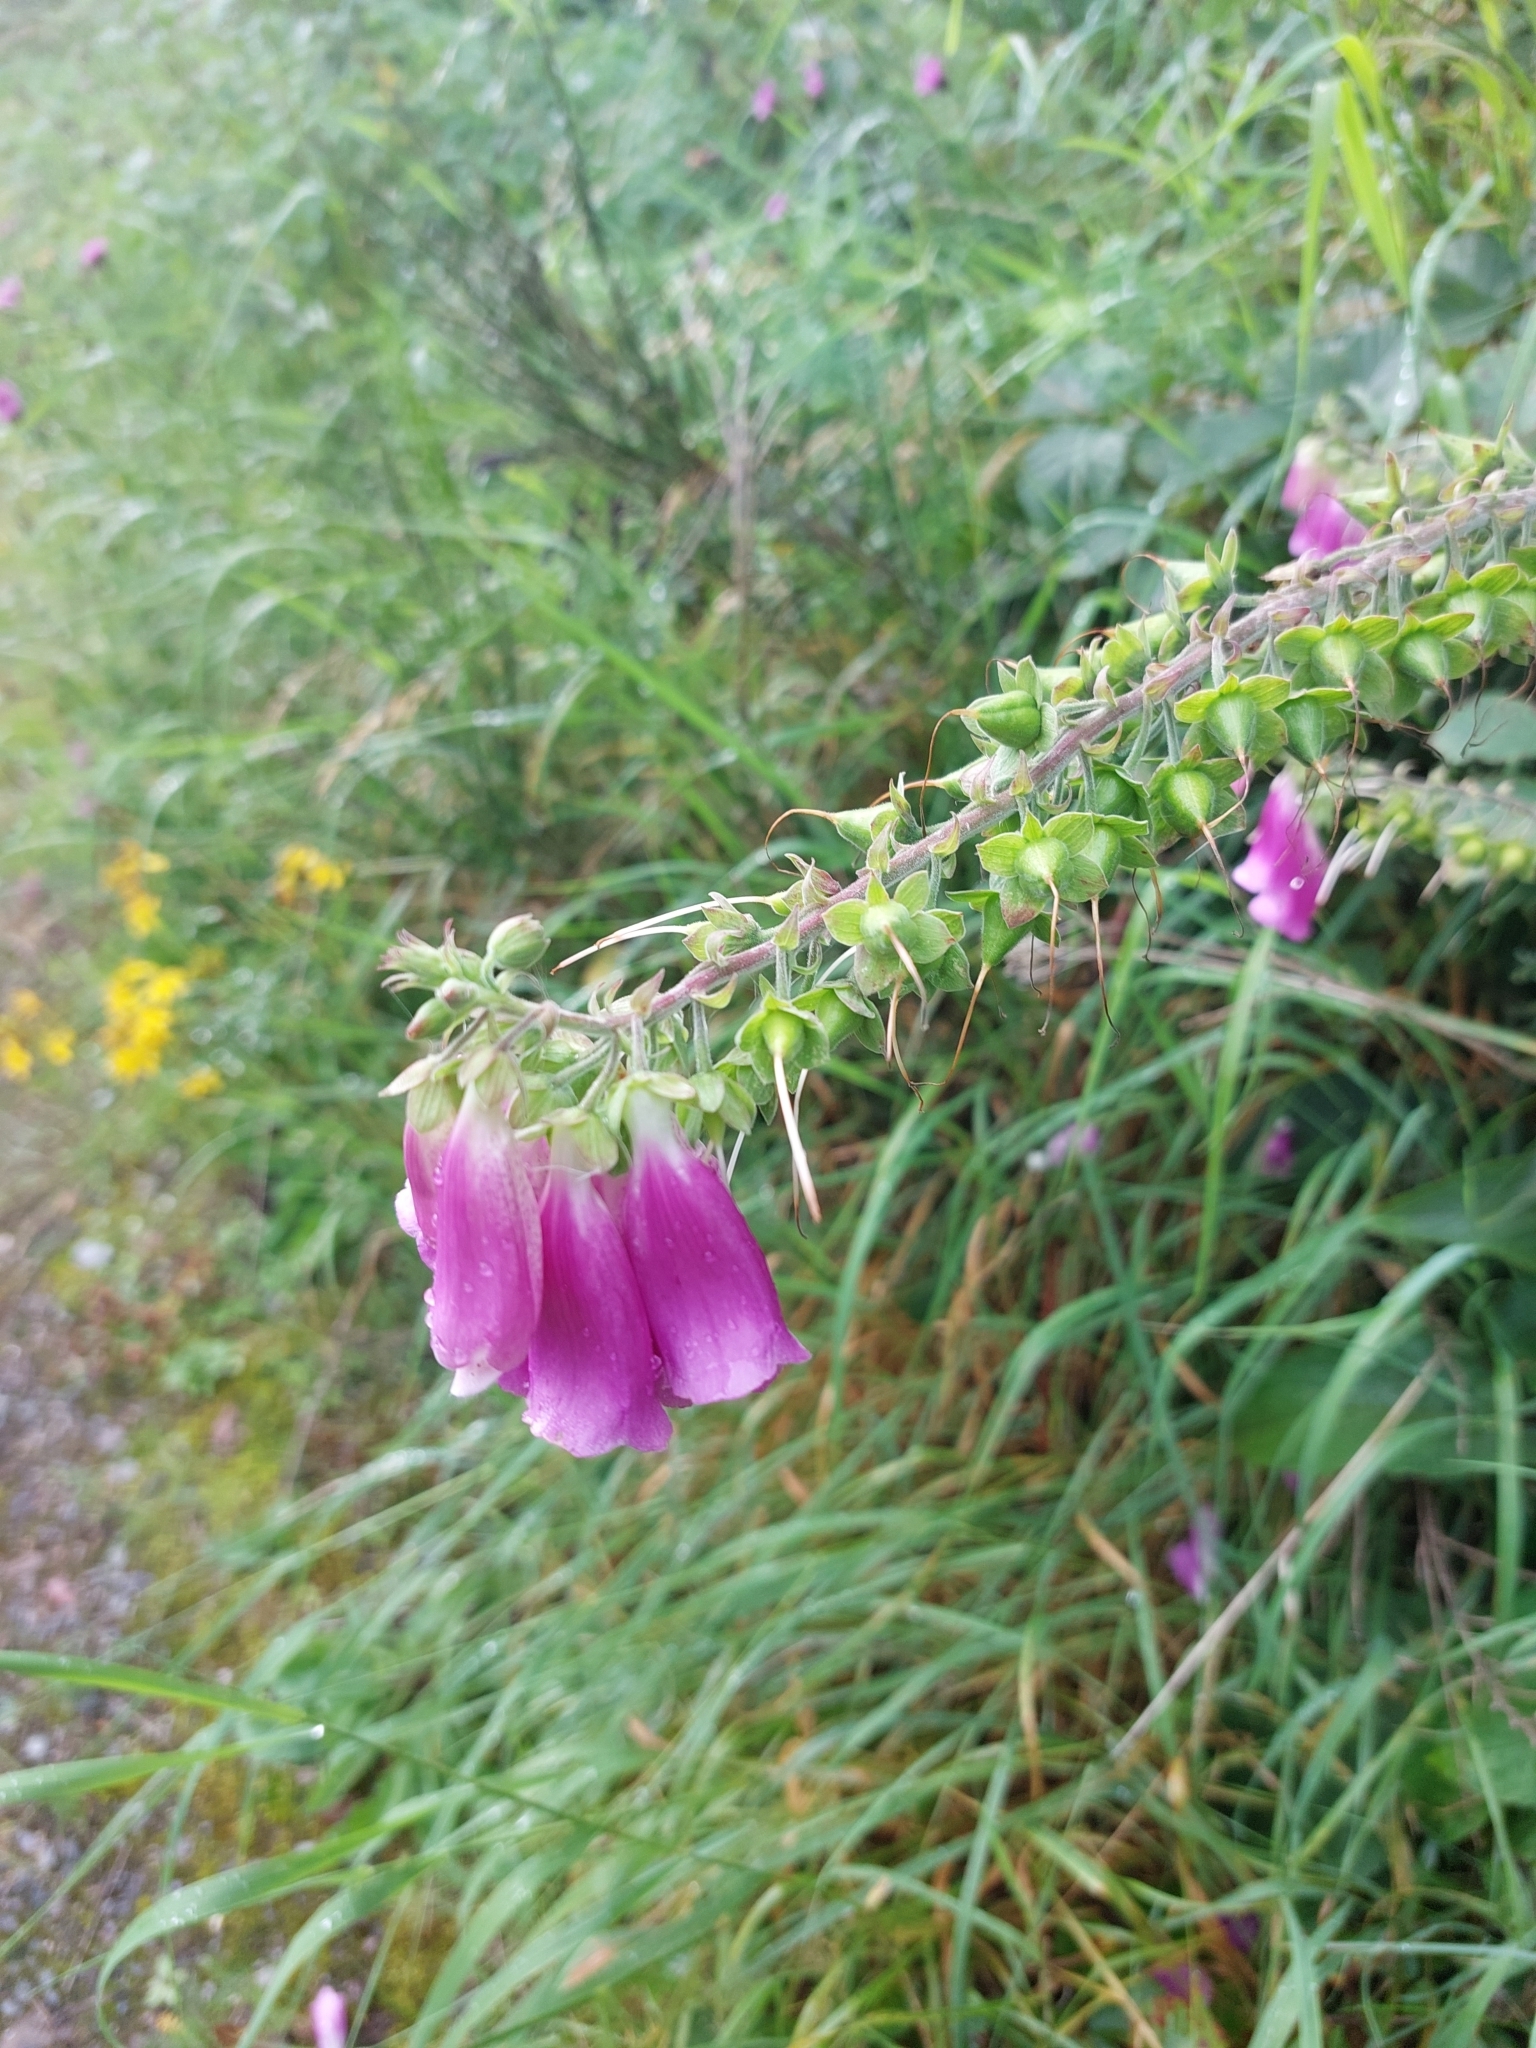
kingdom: Plantae
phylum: Tracheophyta
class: Magnoliopsida
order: Lamiales
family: Plantaginaceae
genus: Digitalis
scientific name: Digitalis purpurea
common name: Foxglove
